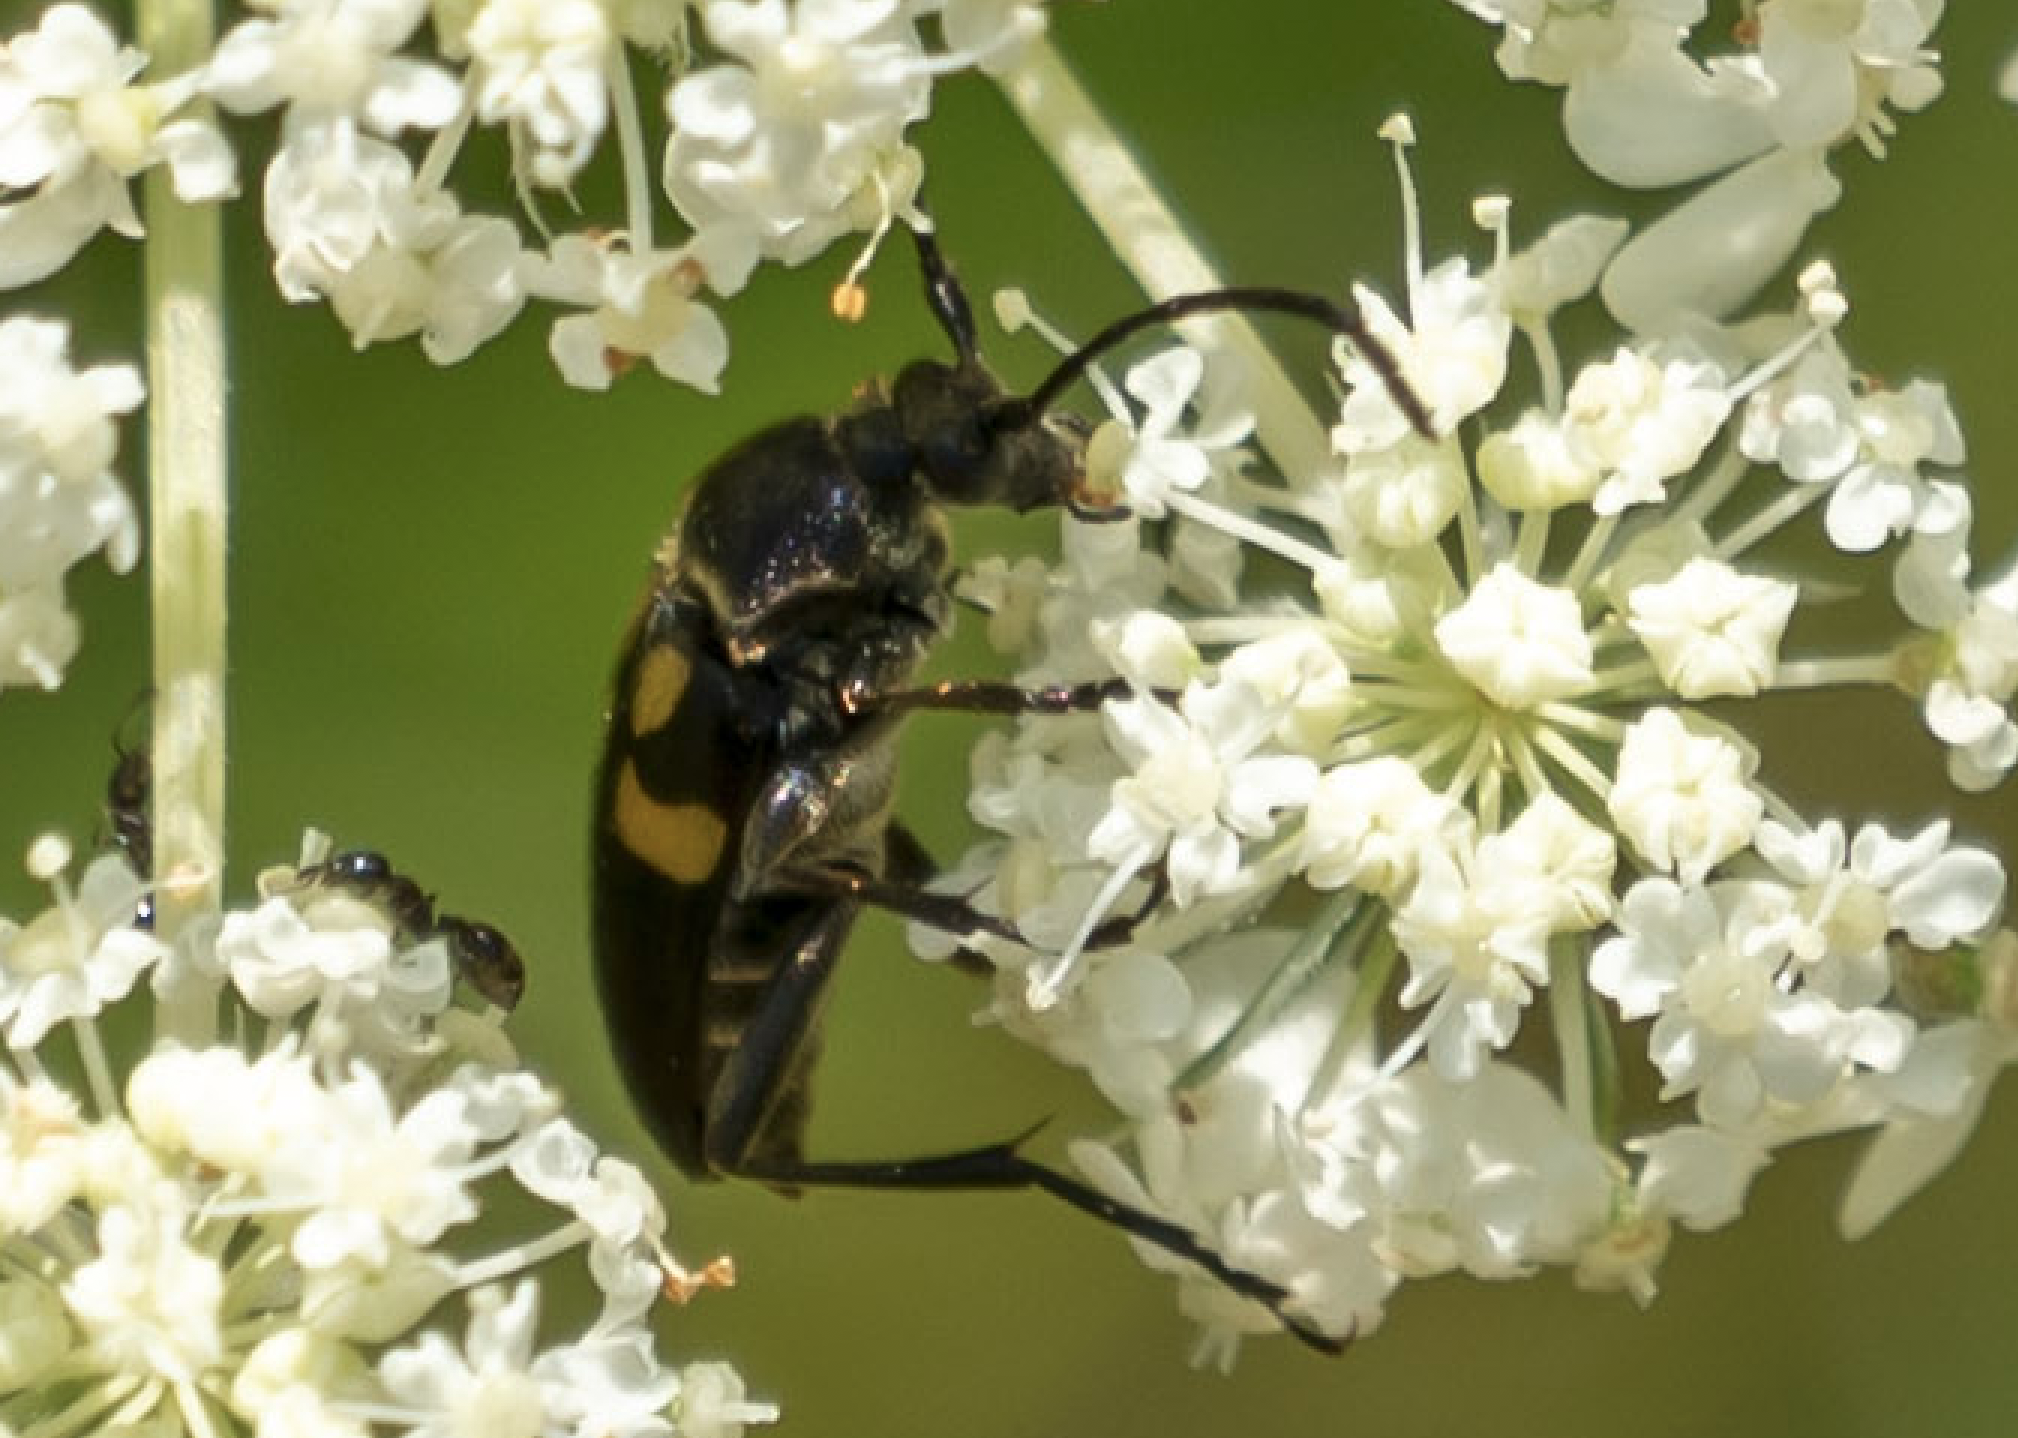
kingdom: Animalia
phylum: Arthropoda
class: Insecta
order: Coleoptera
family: Cerambycidae
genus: Typocerus
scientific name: Typocerus lunulatus
